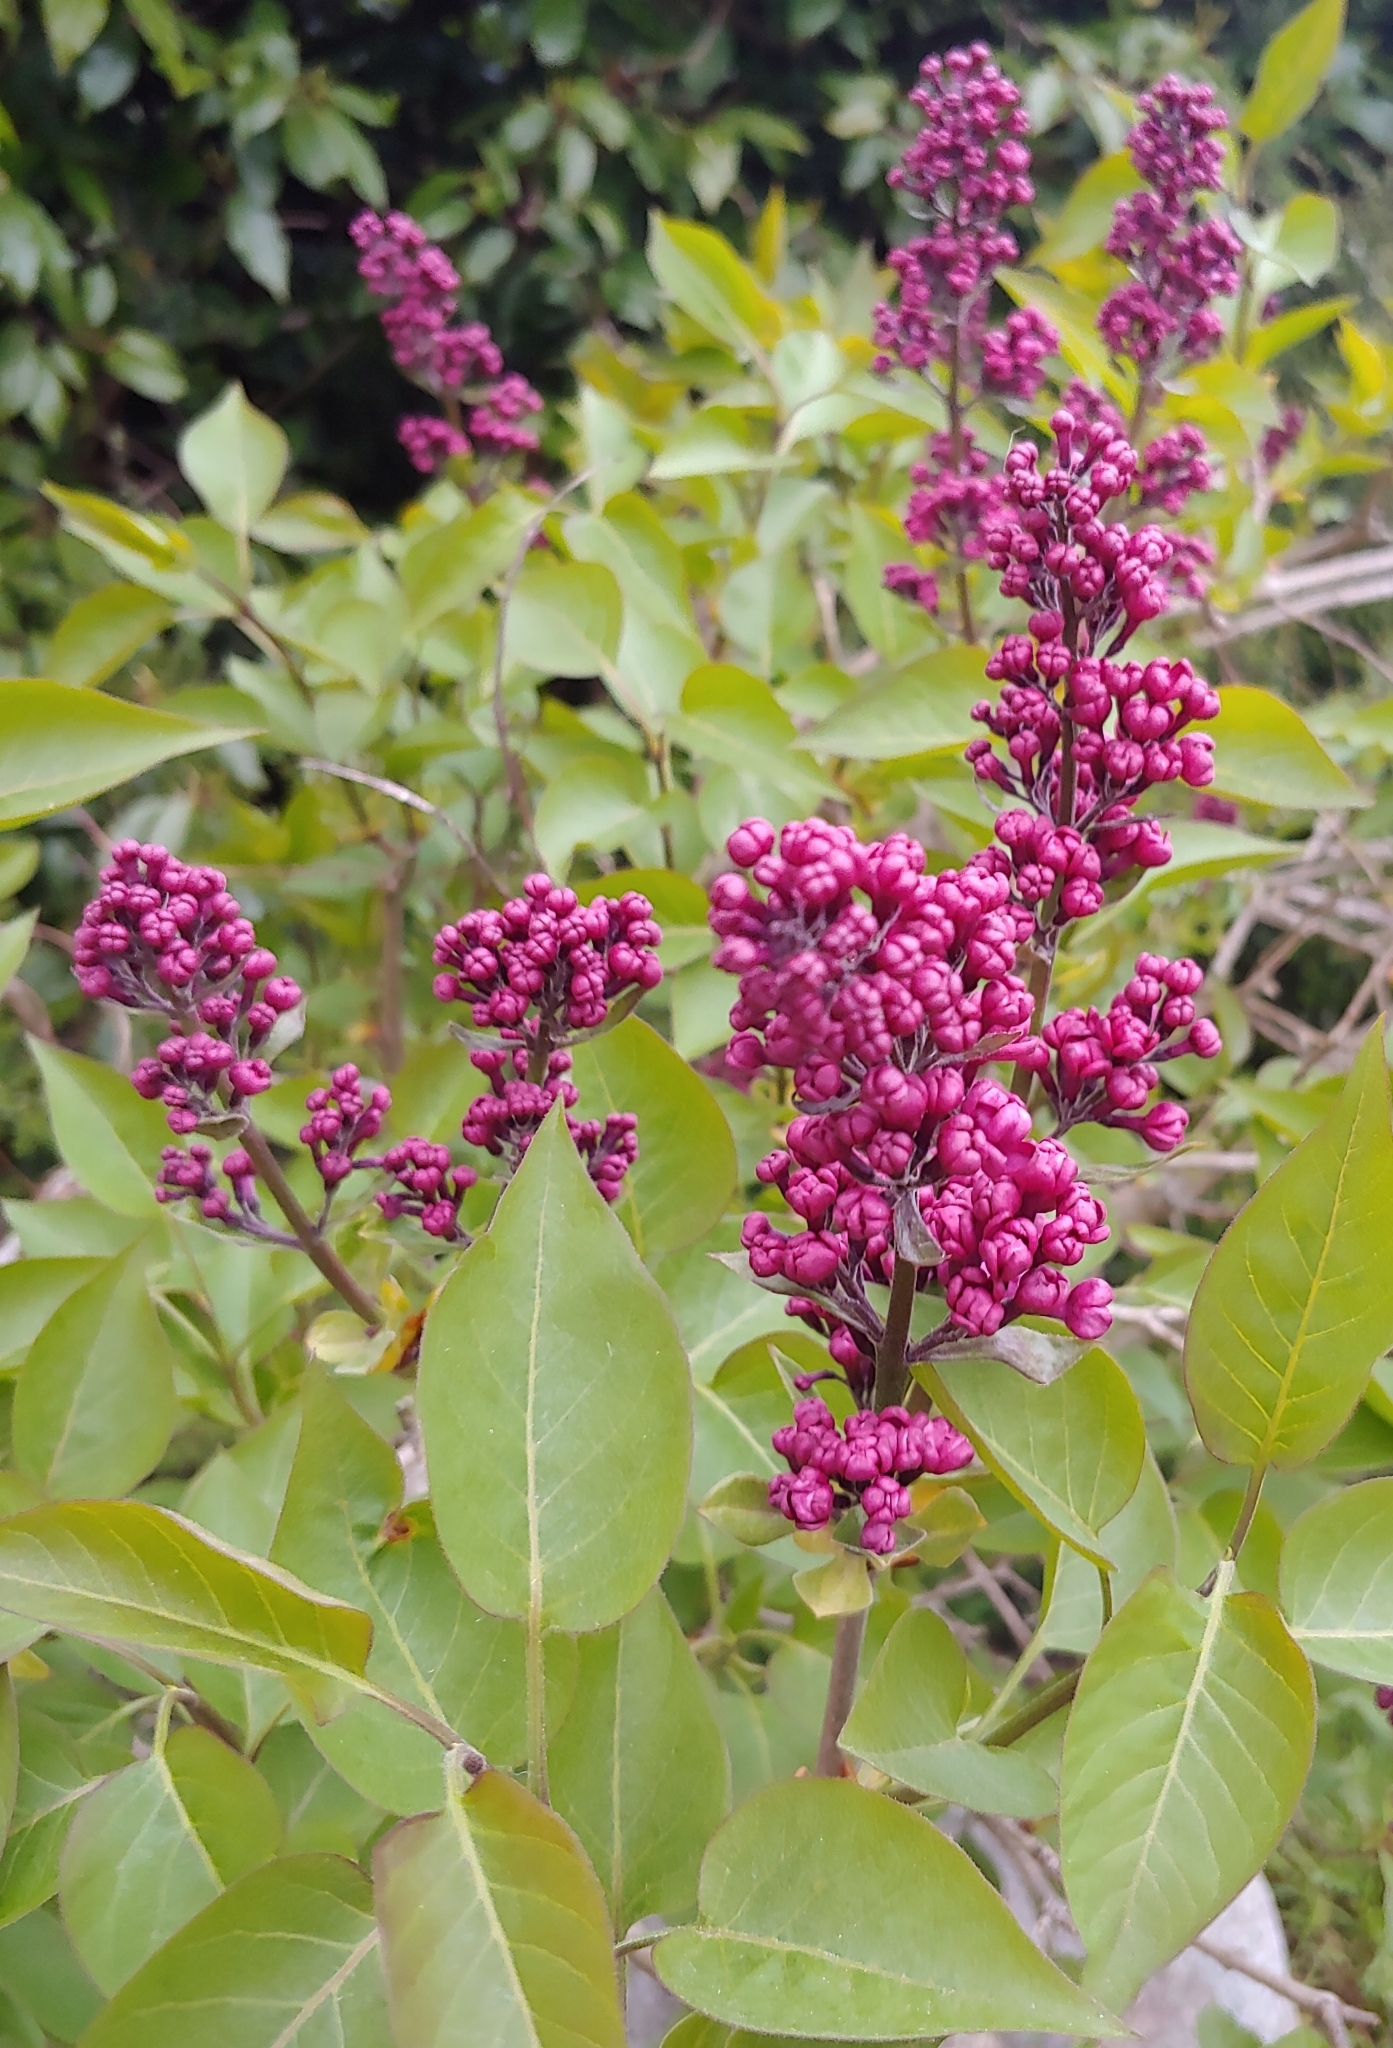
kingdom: Plantae
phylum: Tracheophyta
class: Magnoliopsida
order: Lamiales
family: Oleaceae
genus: Syringa
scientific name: Syringa vulgaris
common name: Common lilac
